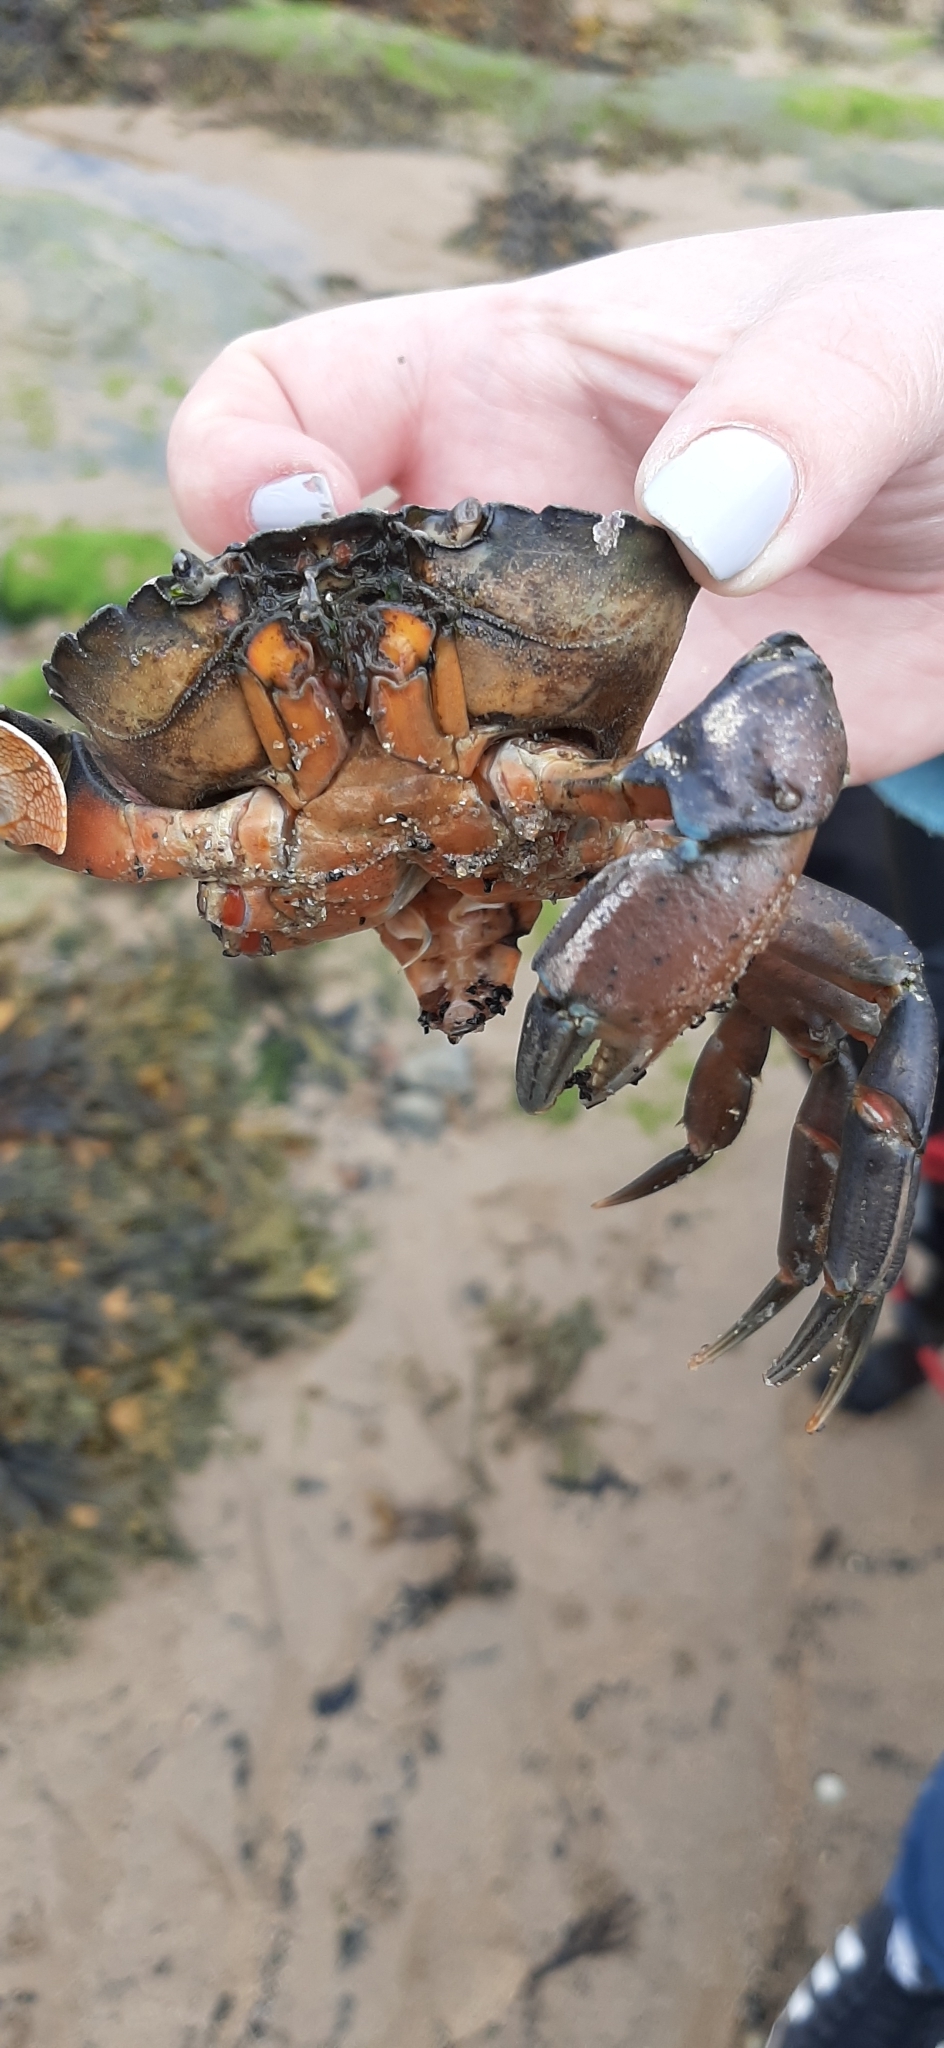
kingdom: Animalia
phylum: Arthropoda
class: Malacostraca
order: Decapoda
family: Carcinidae
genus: Carcinus
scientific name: Carcinus maenas
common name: European green crab
